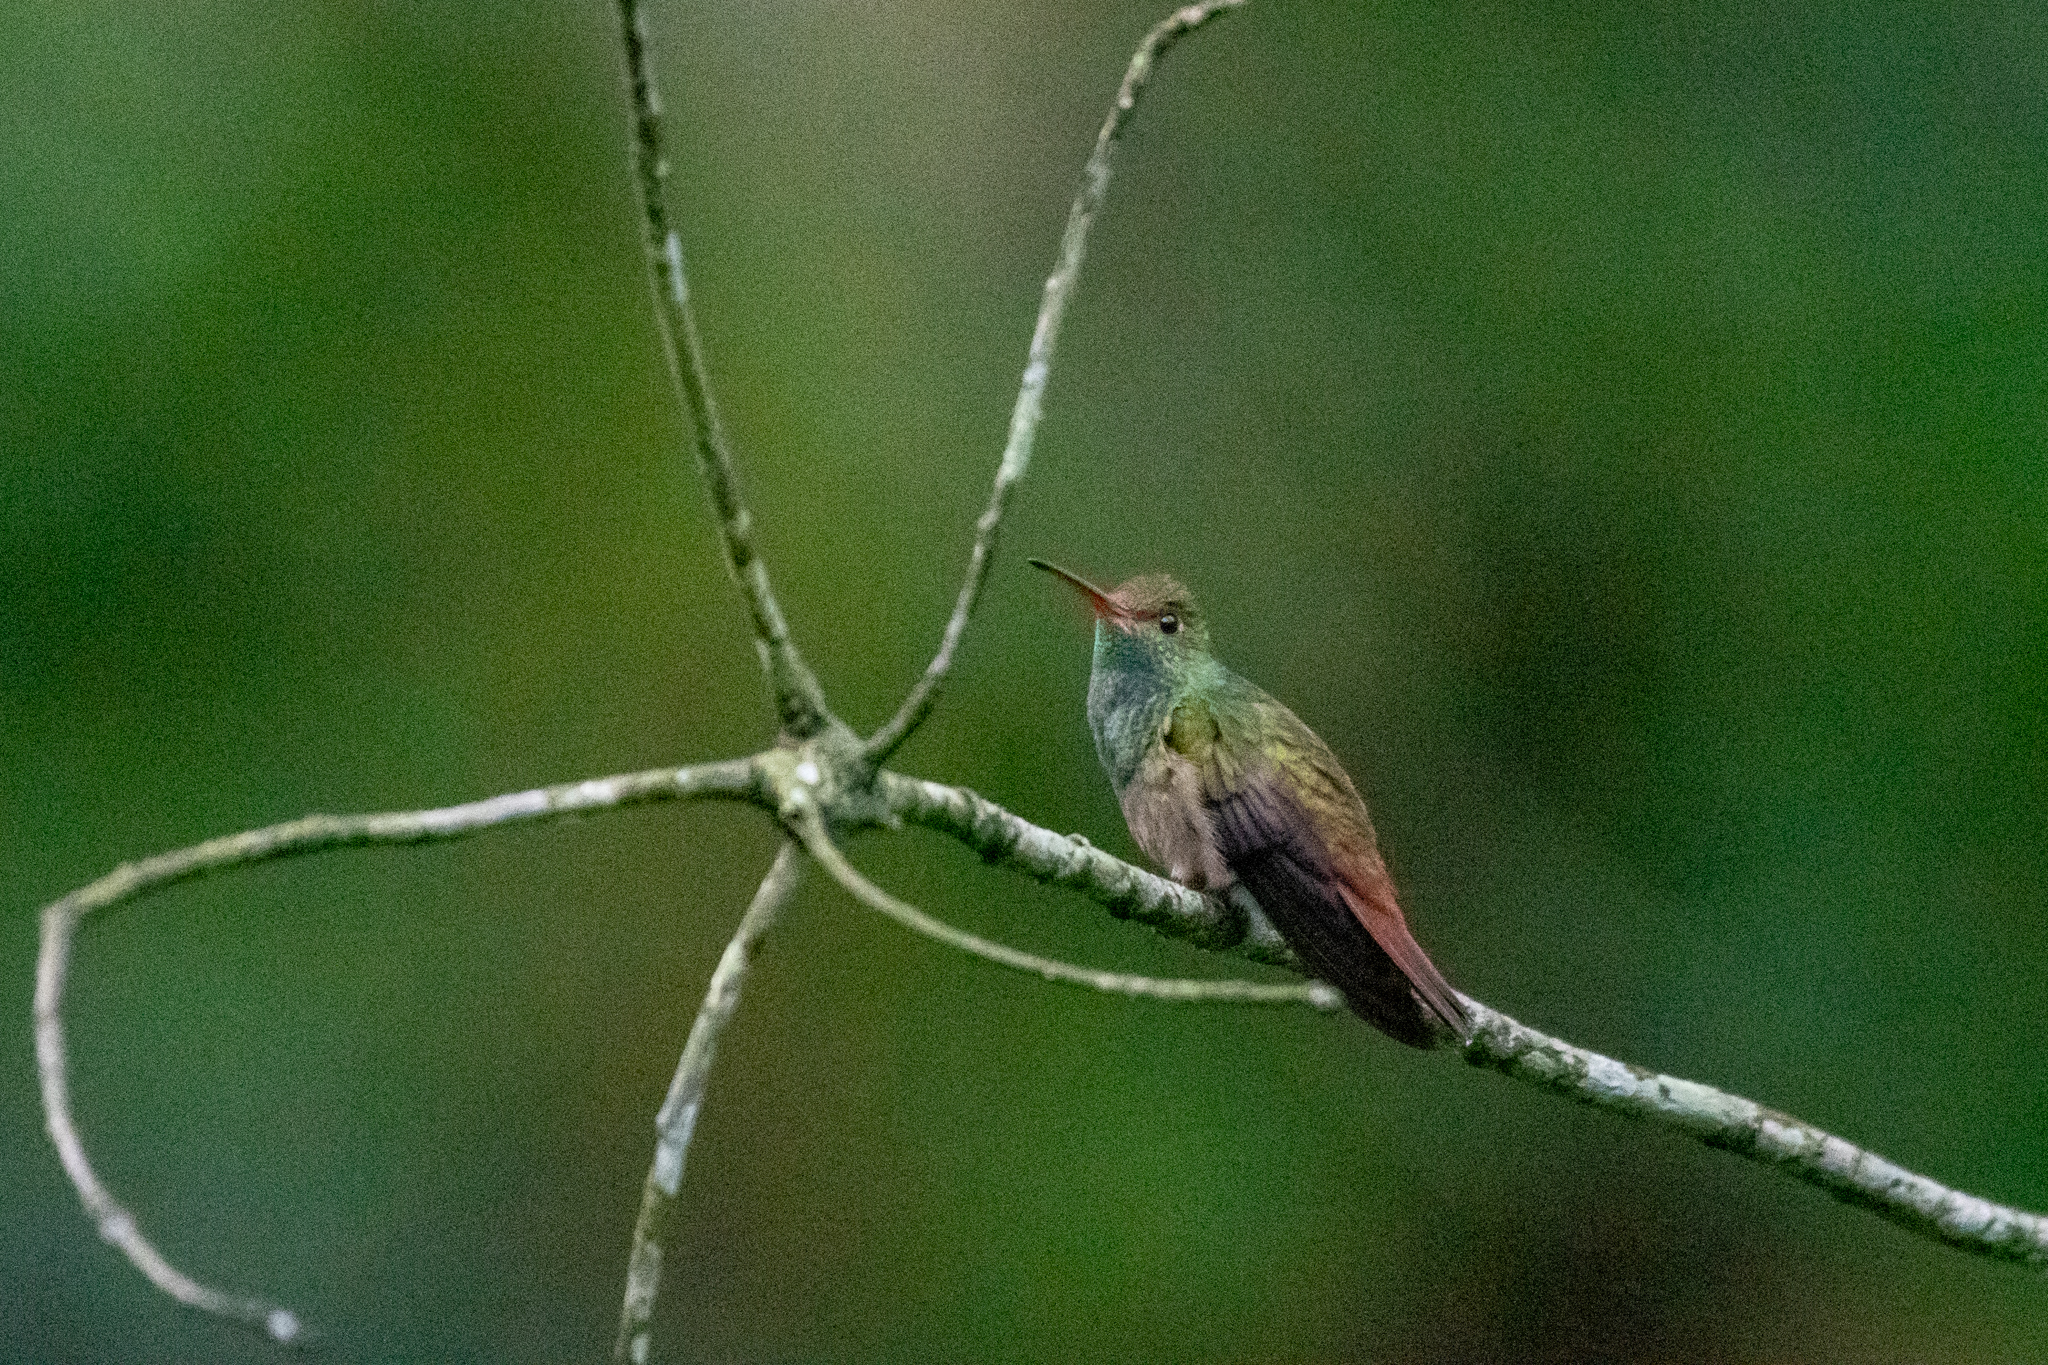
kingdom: Animalia
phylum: Chordata
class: Aves
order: Apodiformes
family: Trochilidae
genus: Amazilia
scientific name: Amazilia tzacatl
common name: Rufous-tailed hummingbird
